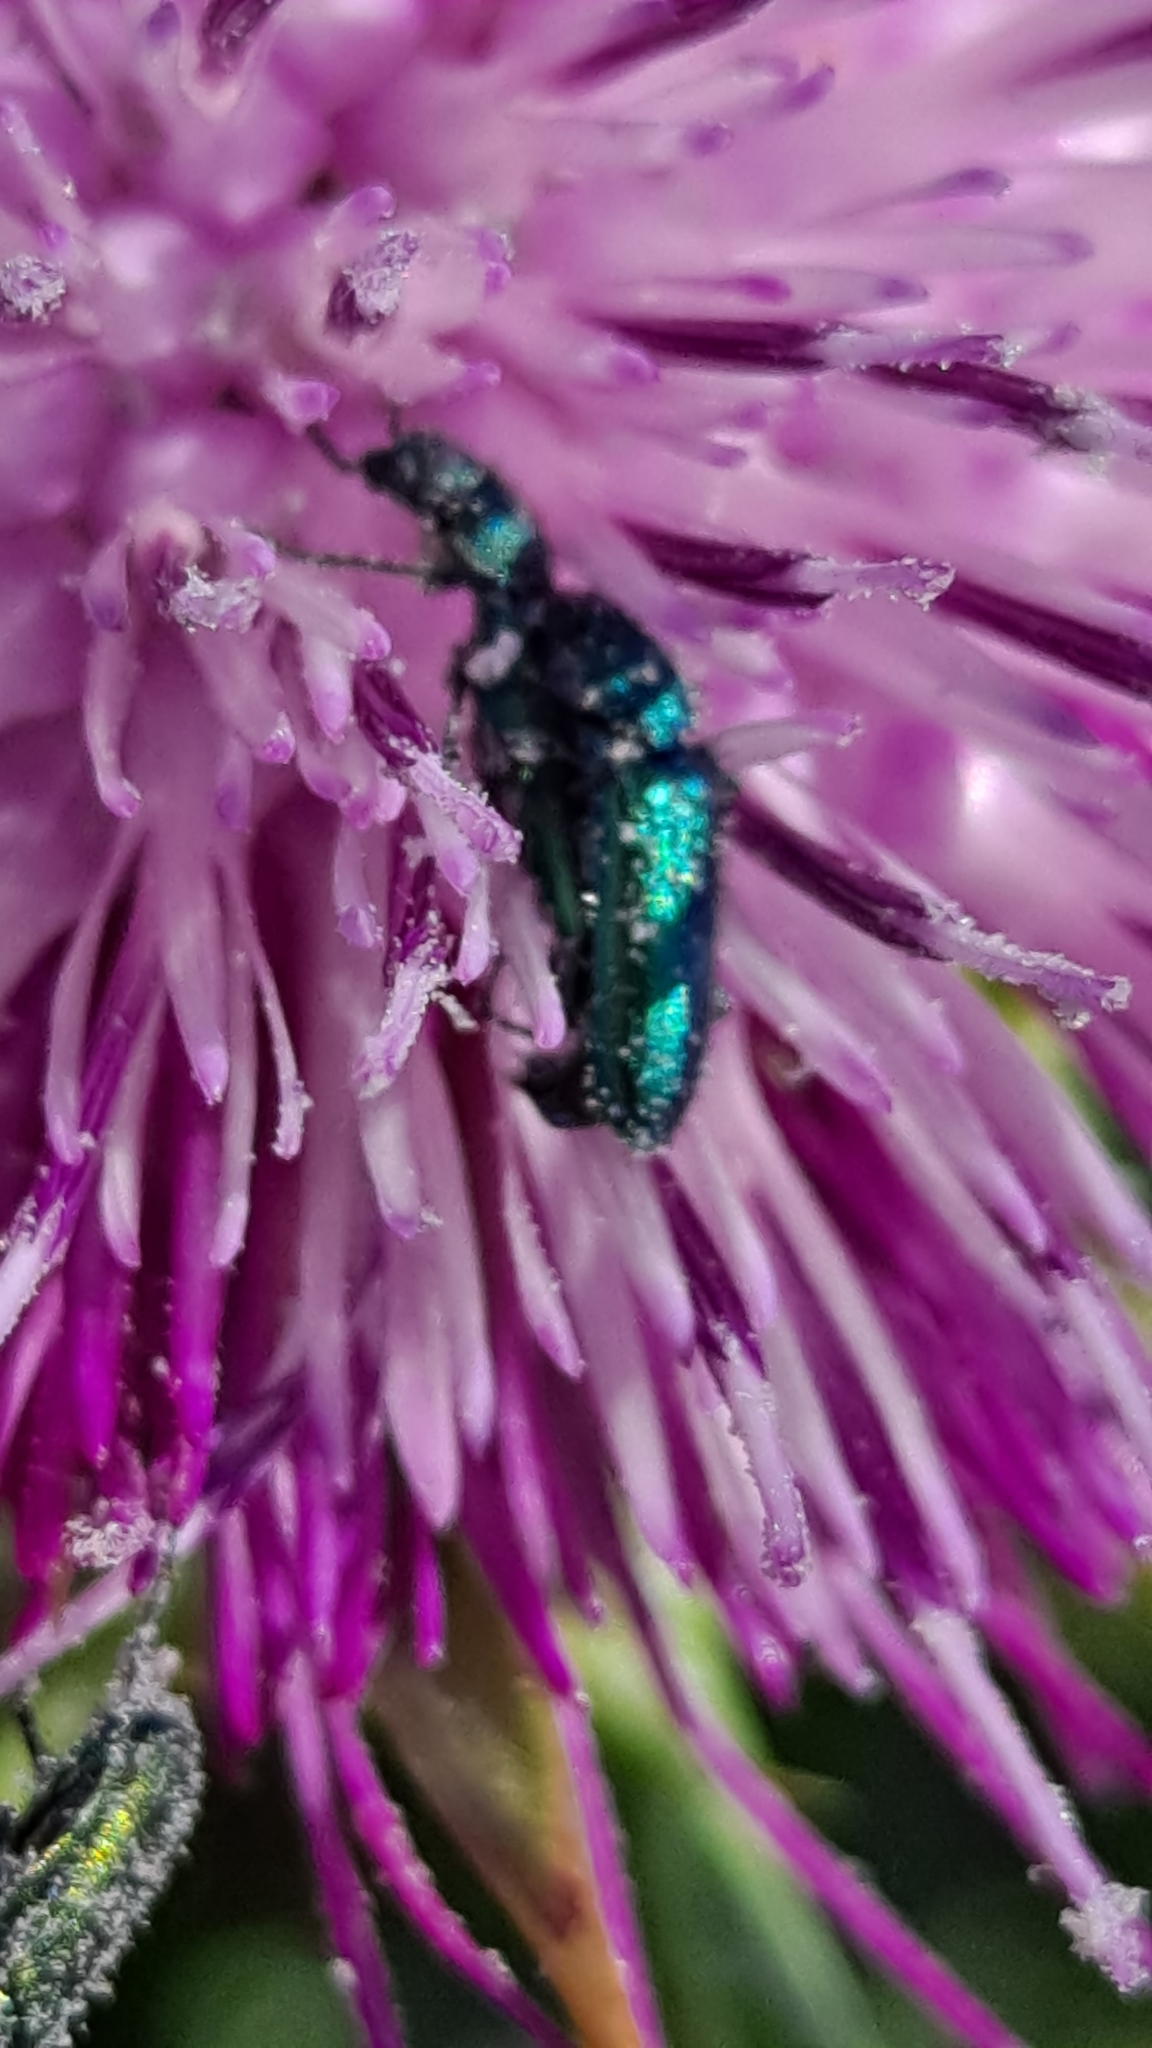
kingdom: Animalia
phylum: Arthropoda
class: Insecta
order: Coleoptera
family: Dasytidae
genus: Psilothrix
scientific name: Psilothrix viridicoerulea
